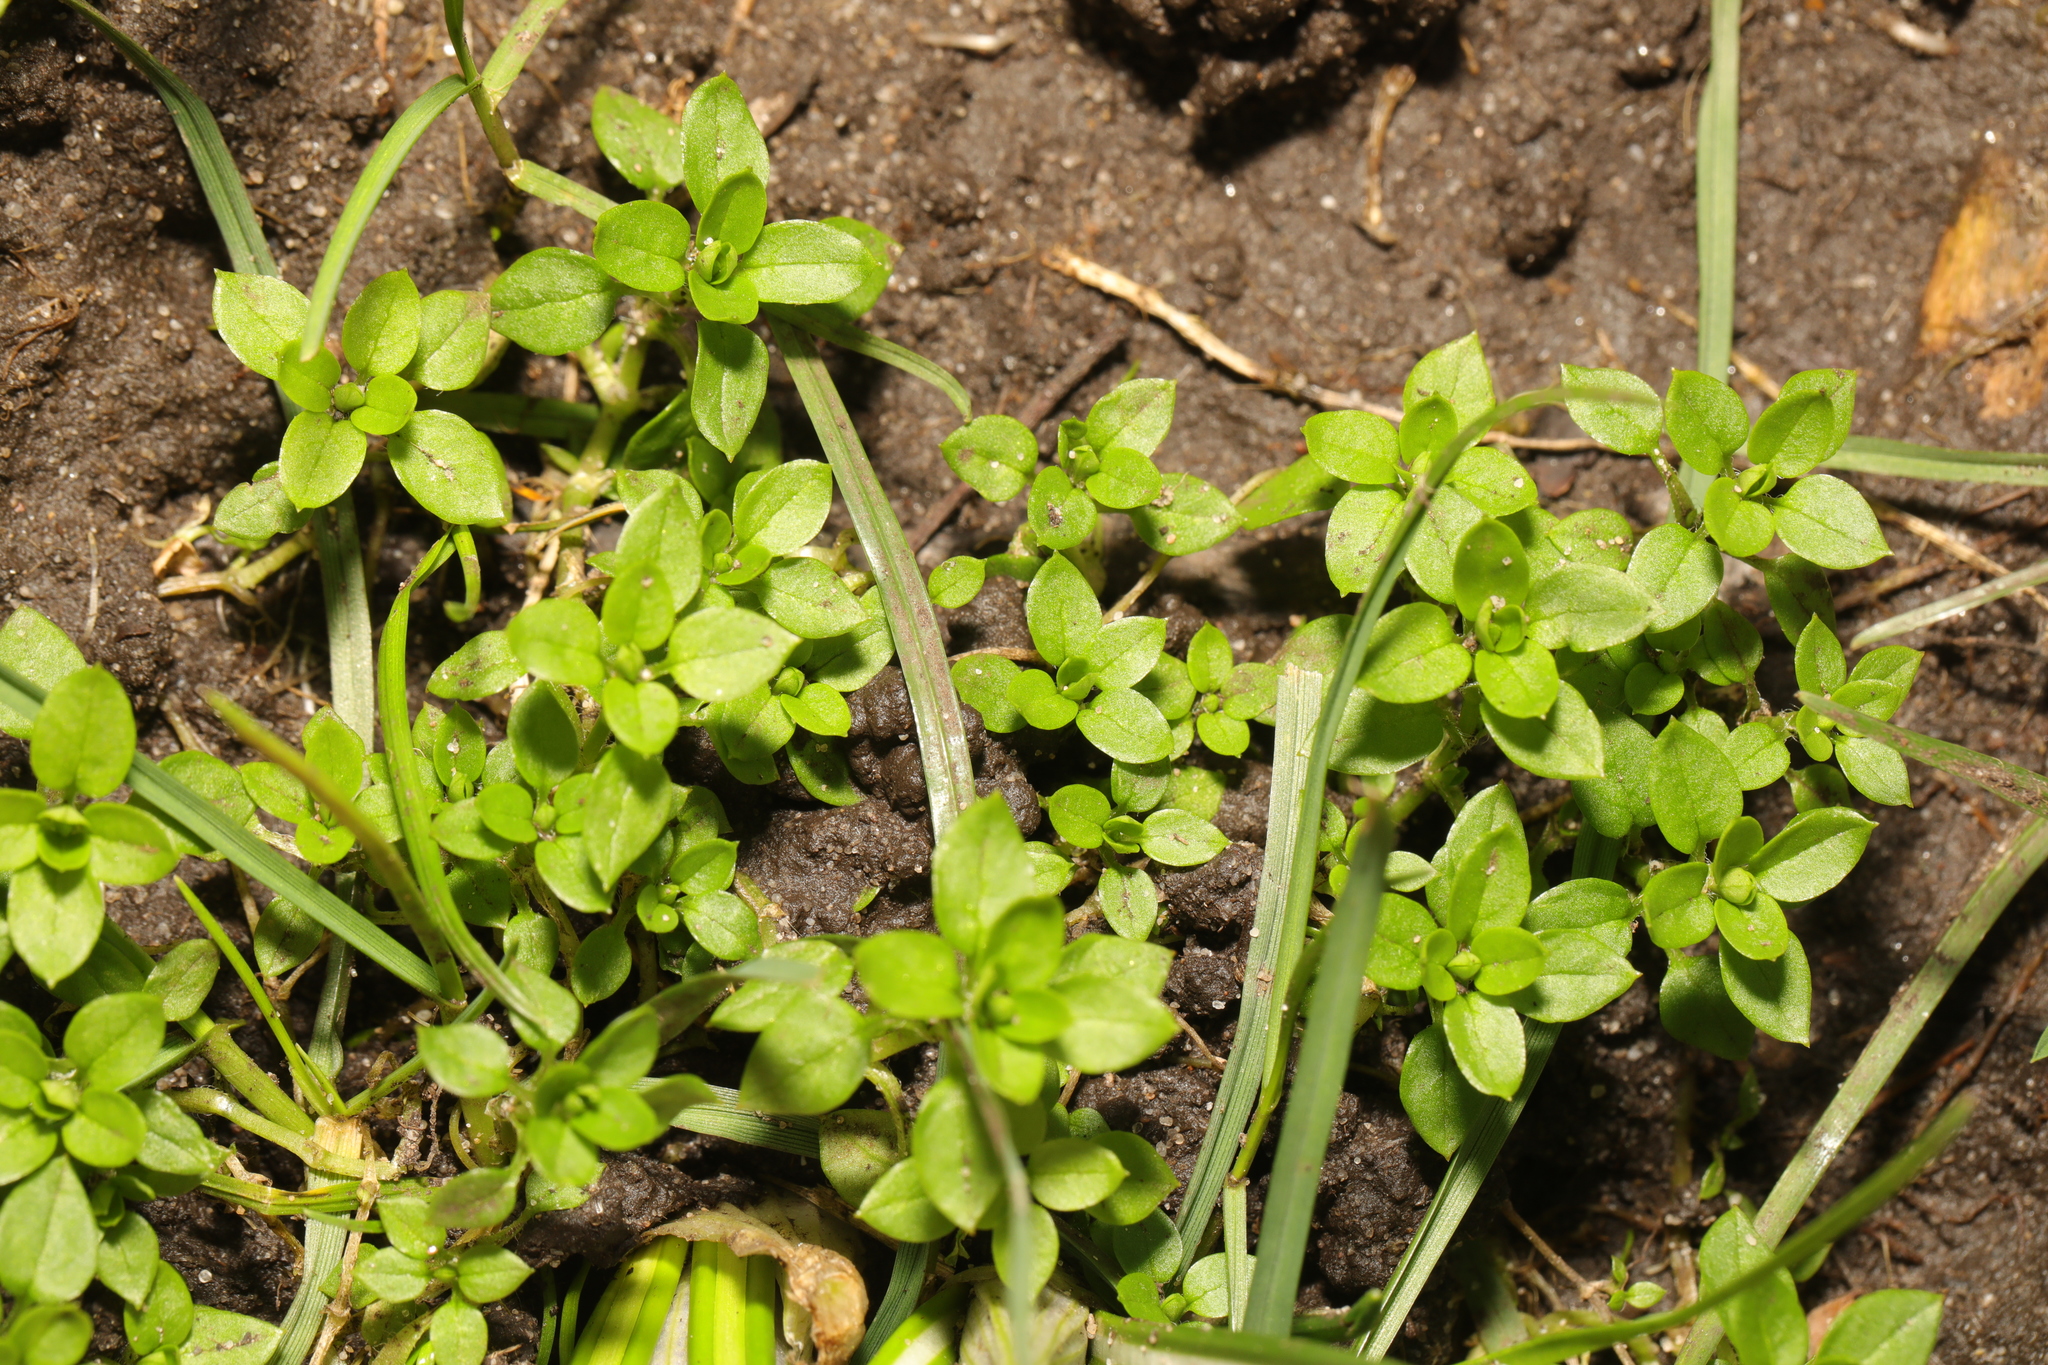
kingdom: Plantae
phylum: Tracheophyta
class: Magnoliopsida
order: Caryophyllales
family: Caryophyllaceae
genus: Stellaria
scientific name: Stellaria media
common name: Common chickweed
